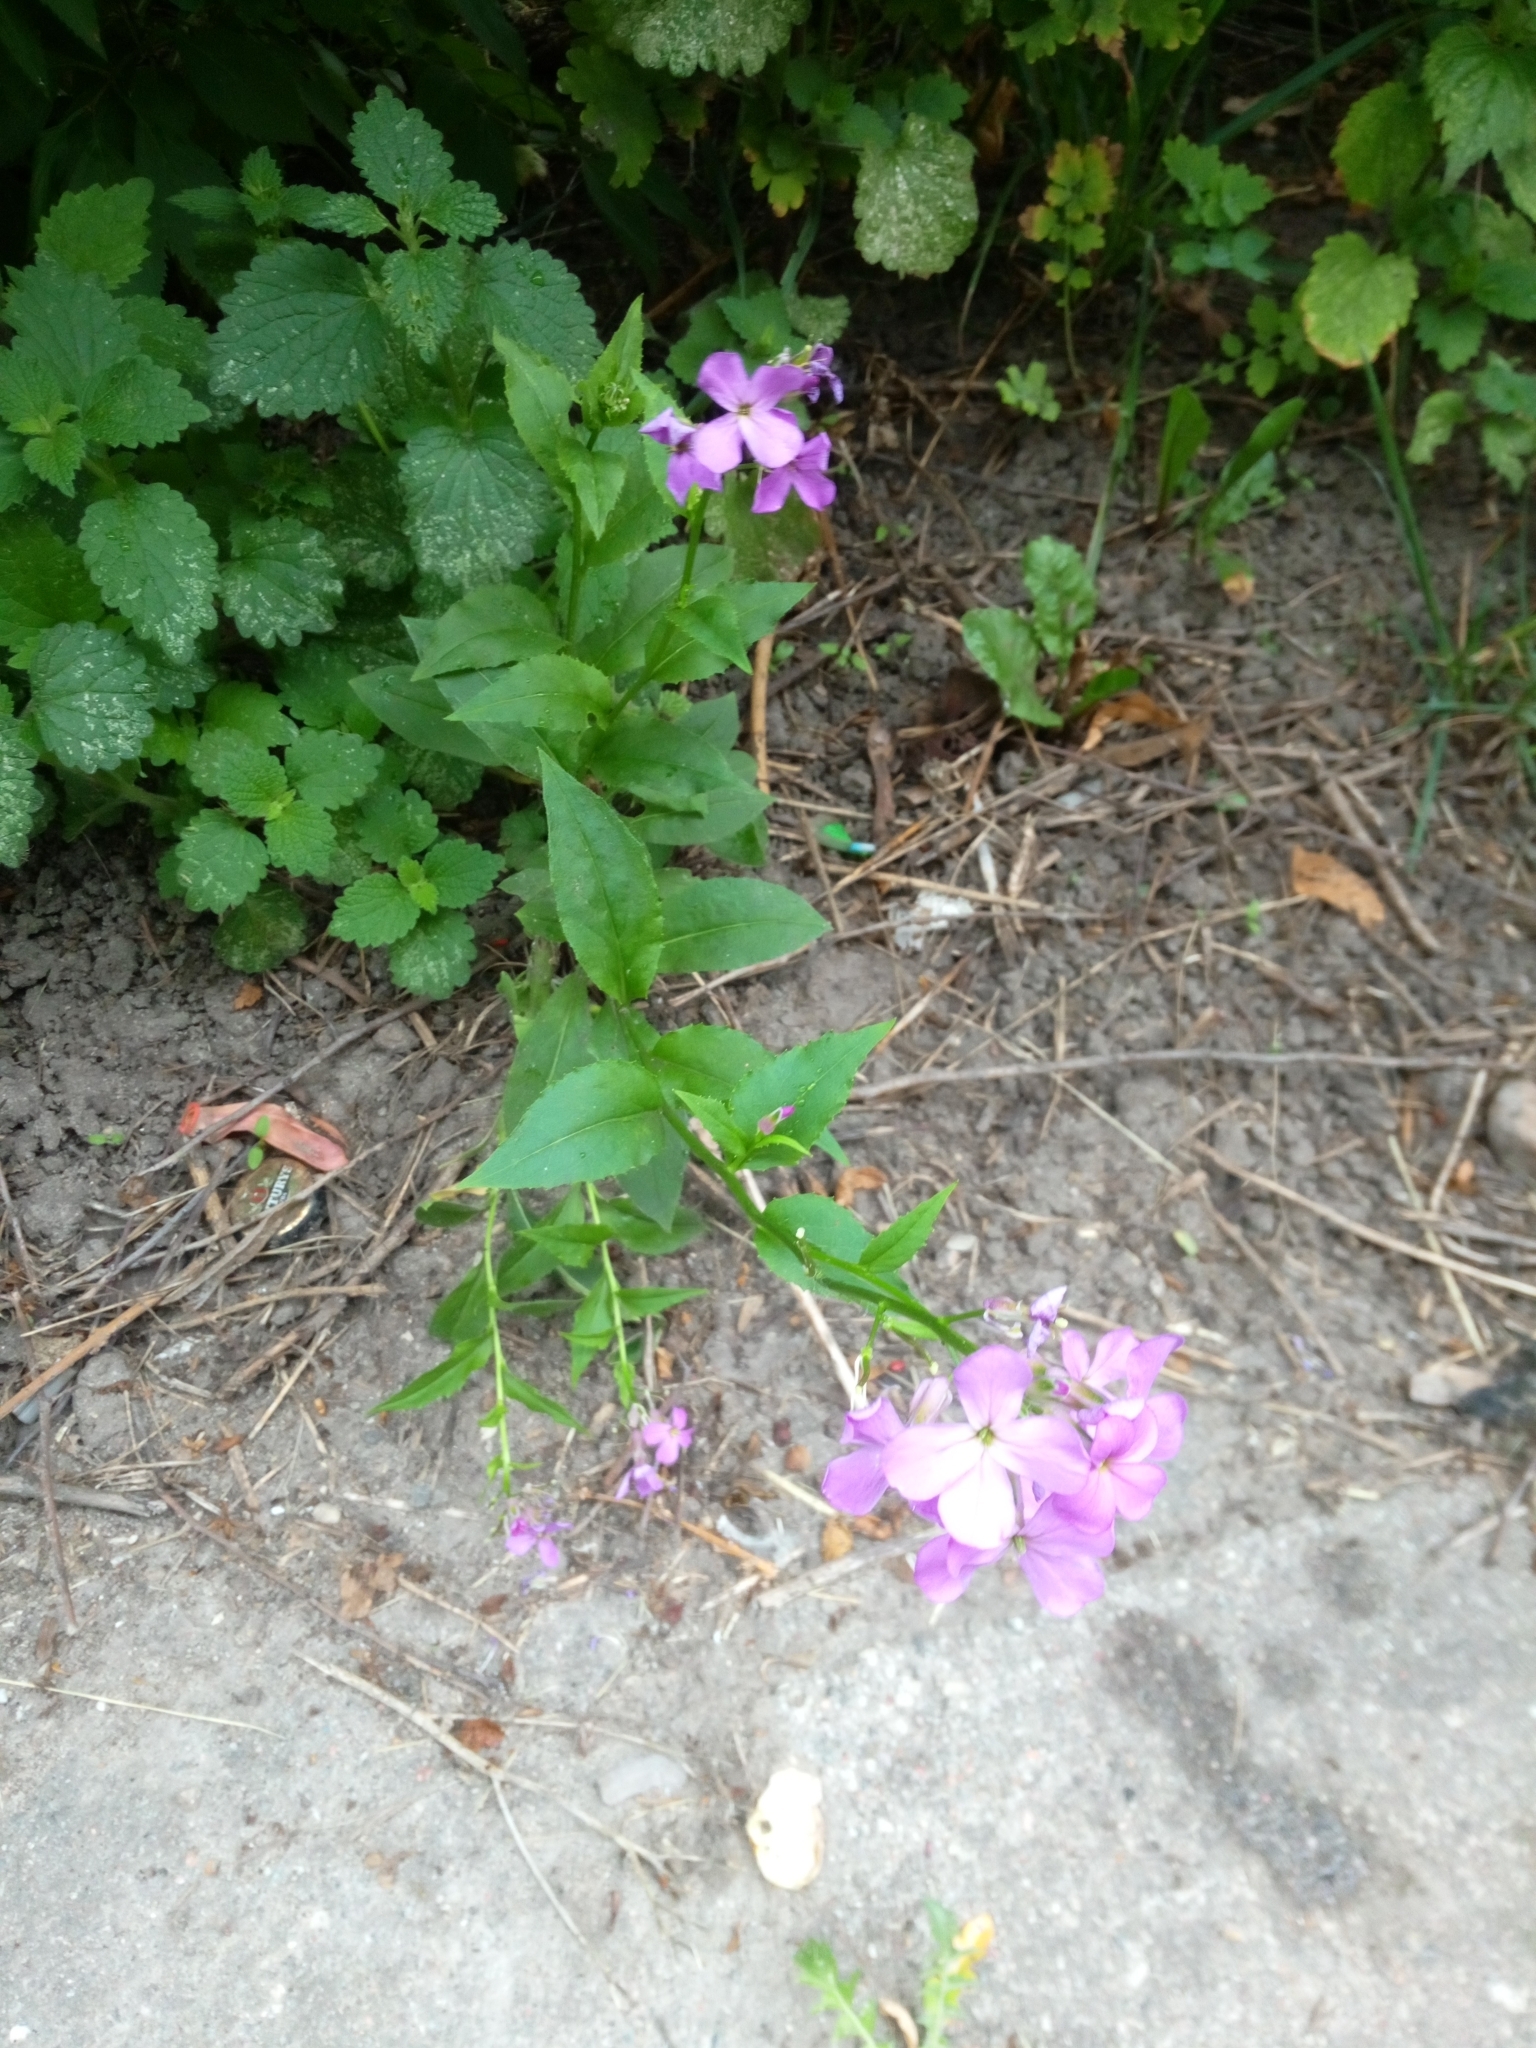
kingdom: Plantae
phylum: Tracheophyta
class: Magnoliopsida
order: Brassicales
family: Brassicaceae
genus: Hesperis
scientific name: Hesperis matronalis
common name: Dame's-violet
